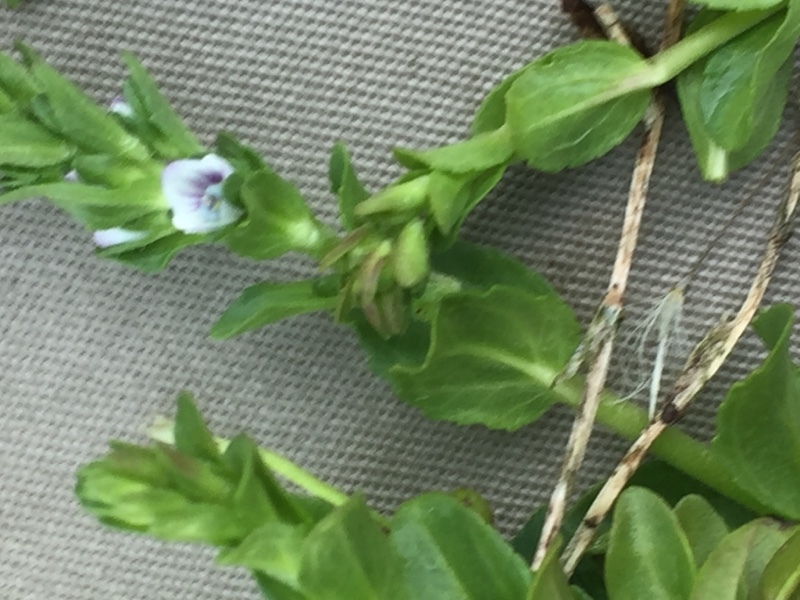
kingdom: Plantae
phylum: Tracheophyta
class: Magnoliopsida
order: Lamiales
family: Plantaginaceae
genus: Veronica
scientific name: Veronica serpyllifolia
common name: Thyme-leaved speedwell
